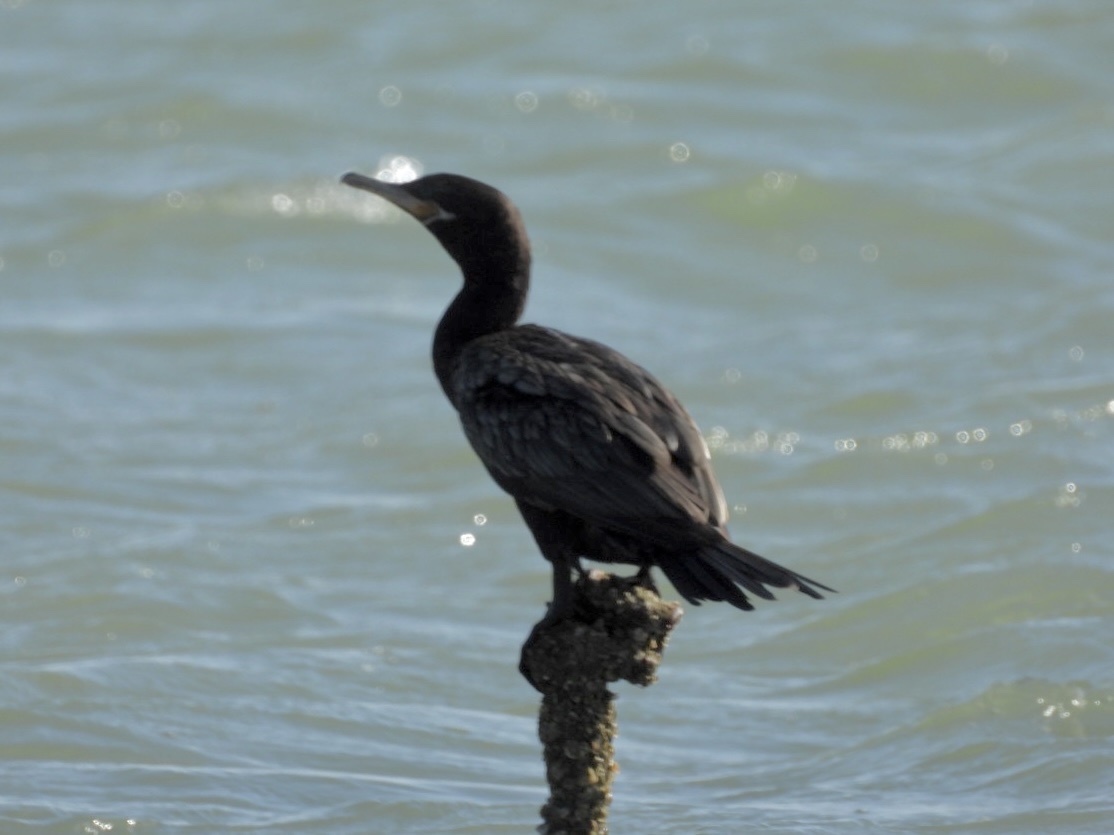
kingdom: Animalia
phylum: Chordata
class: Aves
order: Suliformes
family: Phalacrocoracidae
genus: Phalacrocorax
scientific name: Phalacrocorax brasilianus
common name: Neotropic cormorant
